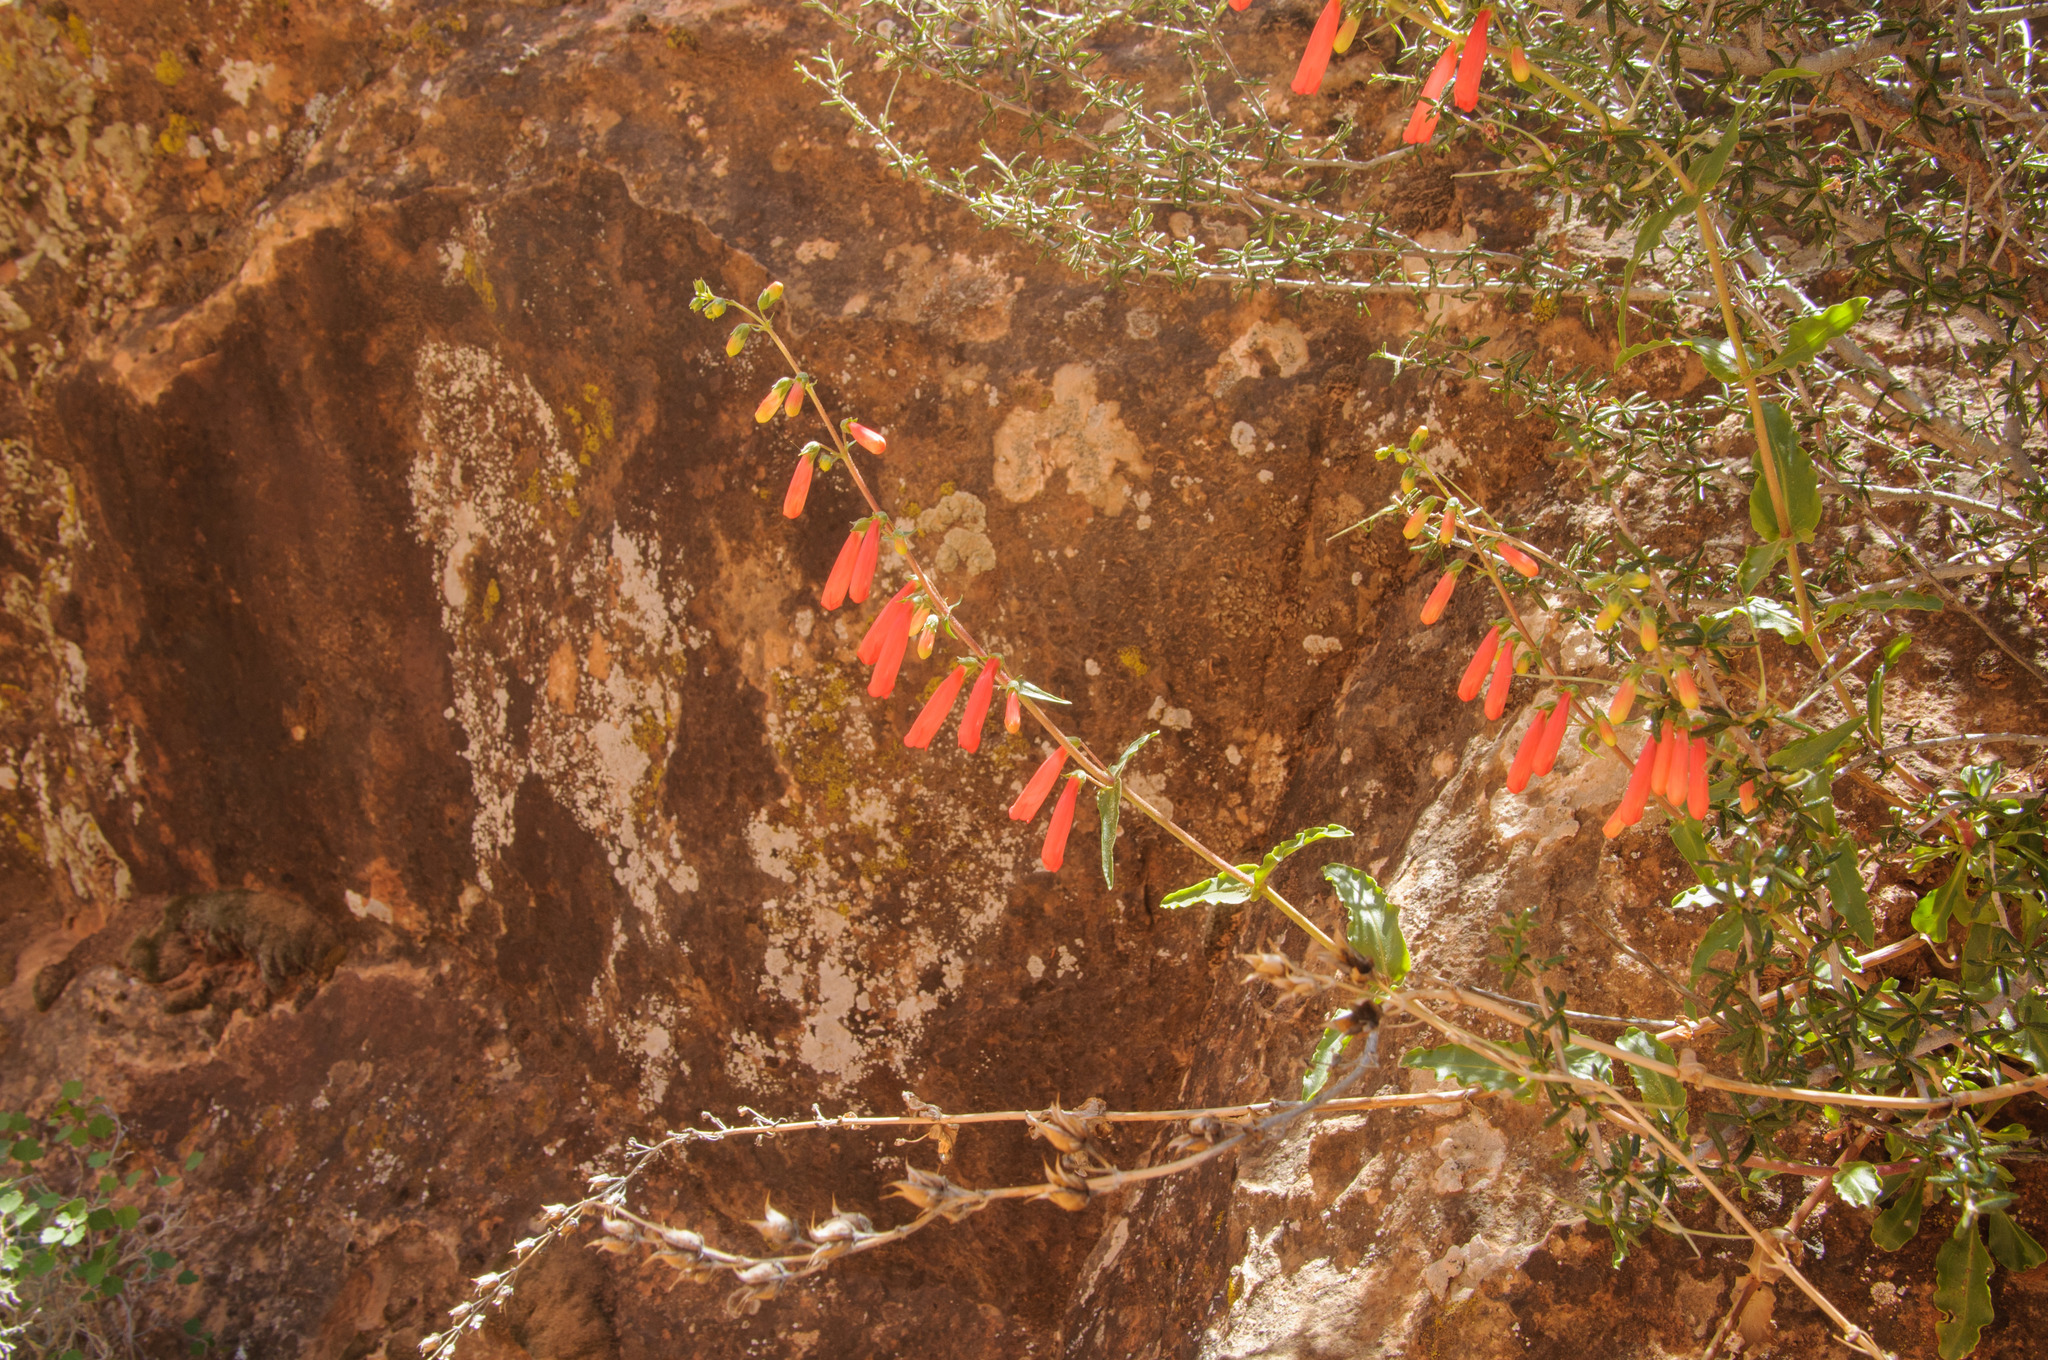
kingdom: Plantae
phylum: Tracheophyta
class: Magnoliopsida
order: Lamiales
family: Plantaginaceae
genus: Penstemon
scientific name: Penstemon eatonii
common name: Eaton's penstemon
